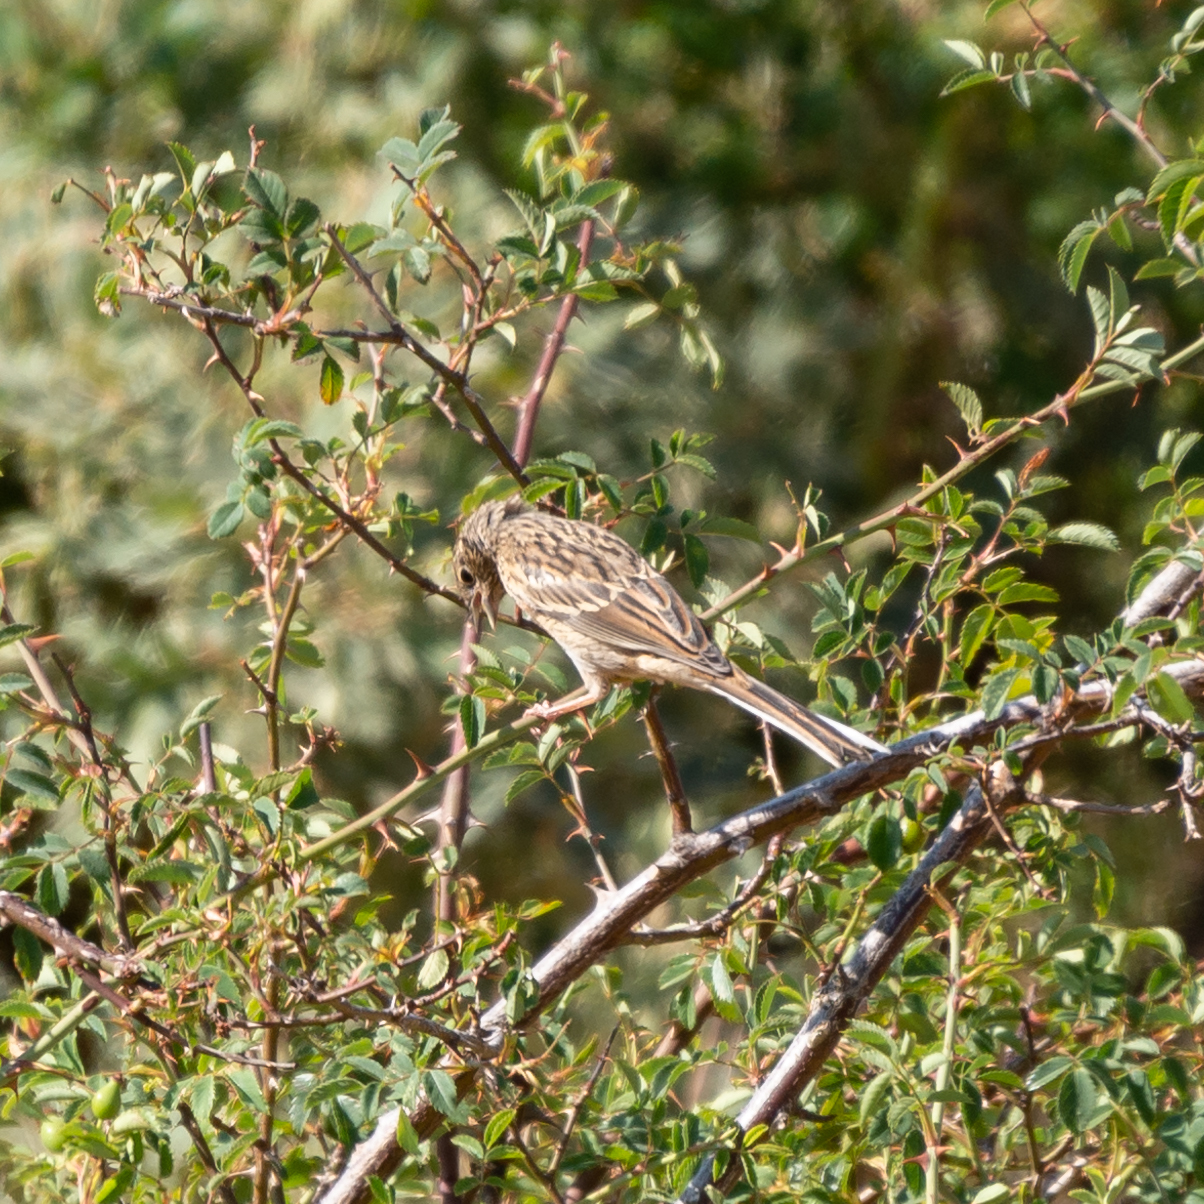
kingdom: Animalia
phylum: Chordata
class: Aves
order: Passeriformes
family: Emberizidae
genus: Emberiza
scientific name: Emberiza cia
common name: Rock bunting
